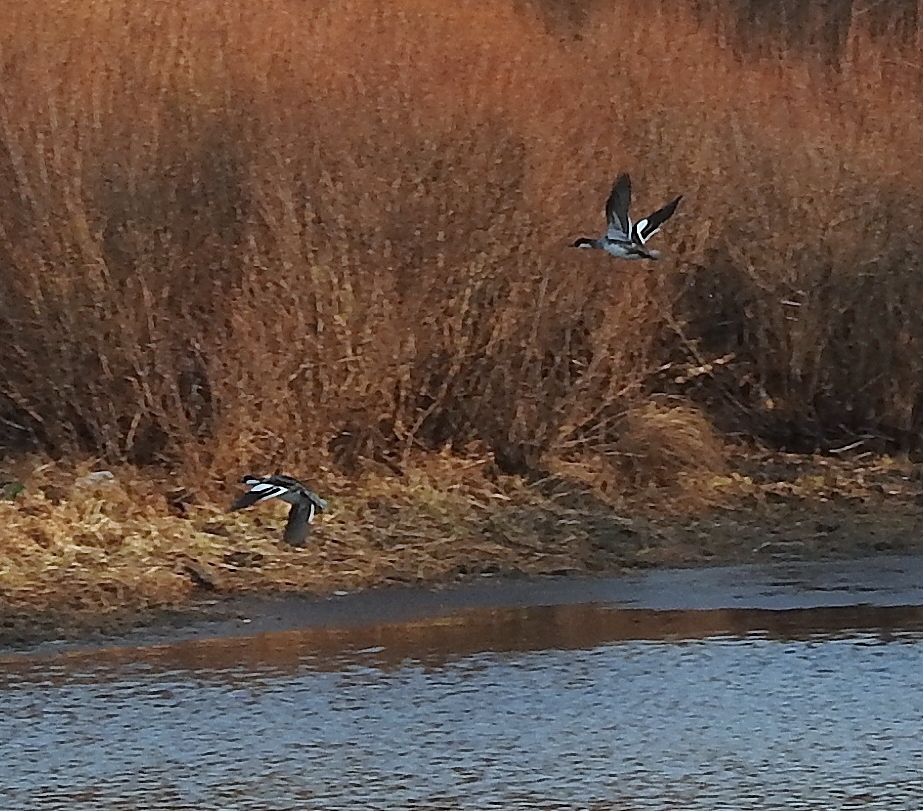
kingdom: Animalia
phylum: Chordata
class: Aves
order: Anseriformes
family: Anatidae
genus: Mergellus
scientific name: Mergellus albellus
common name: Smew
